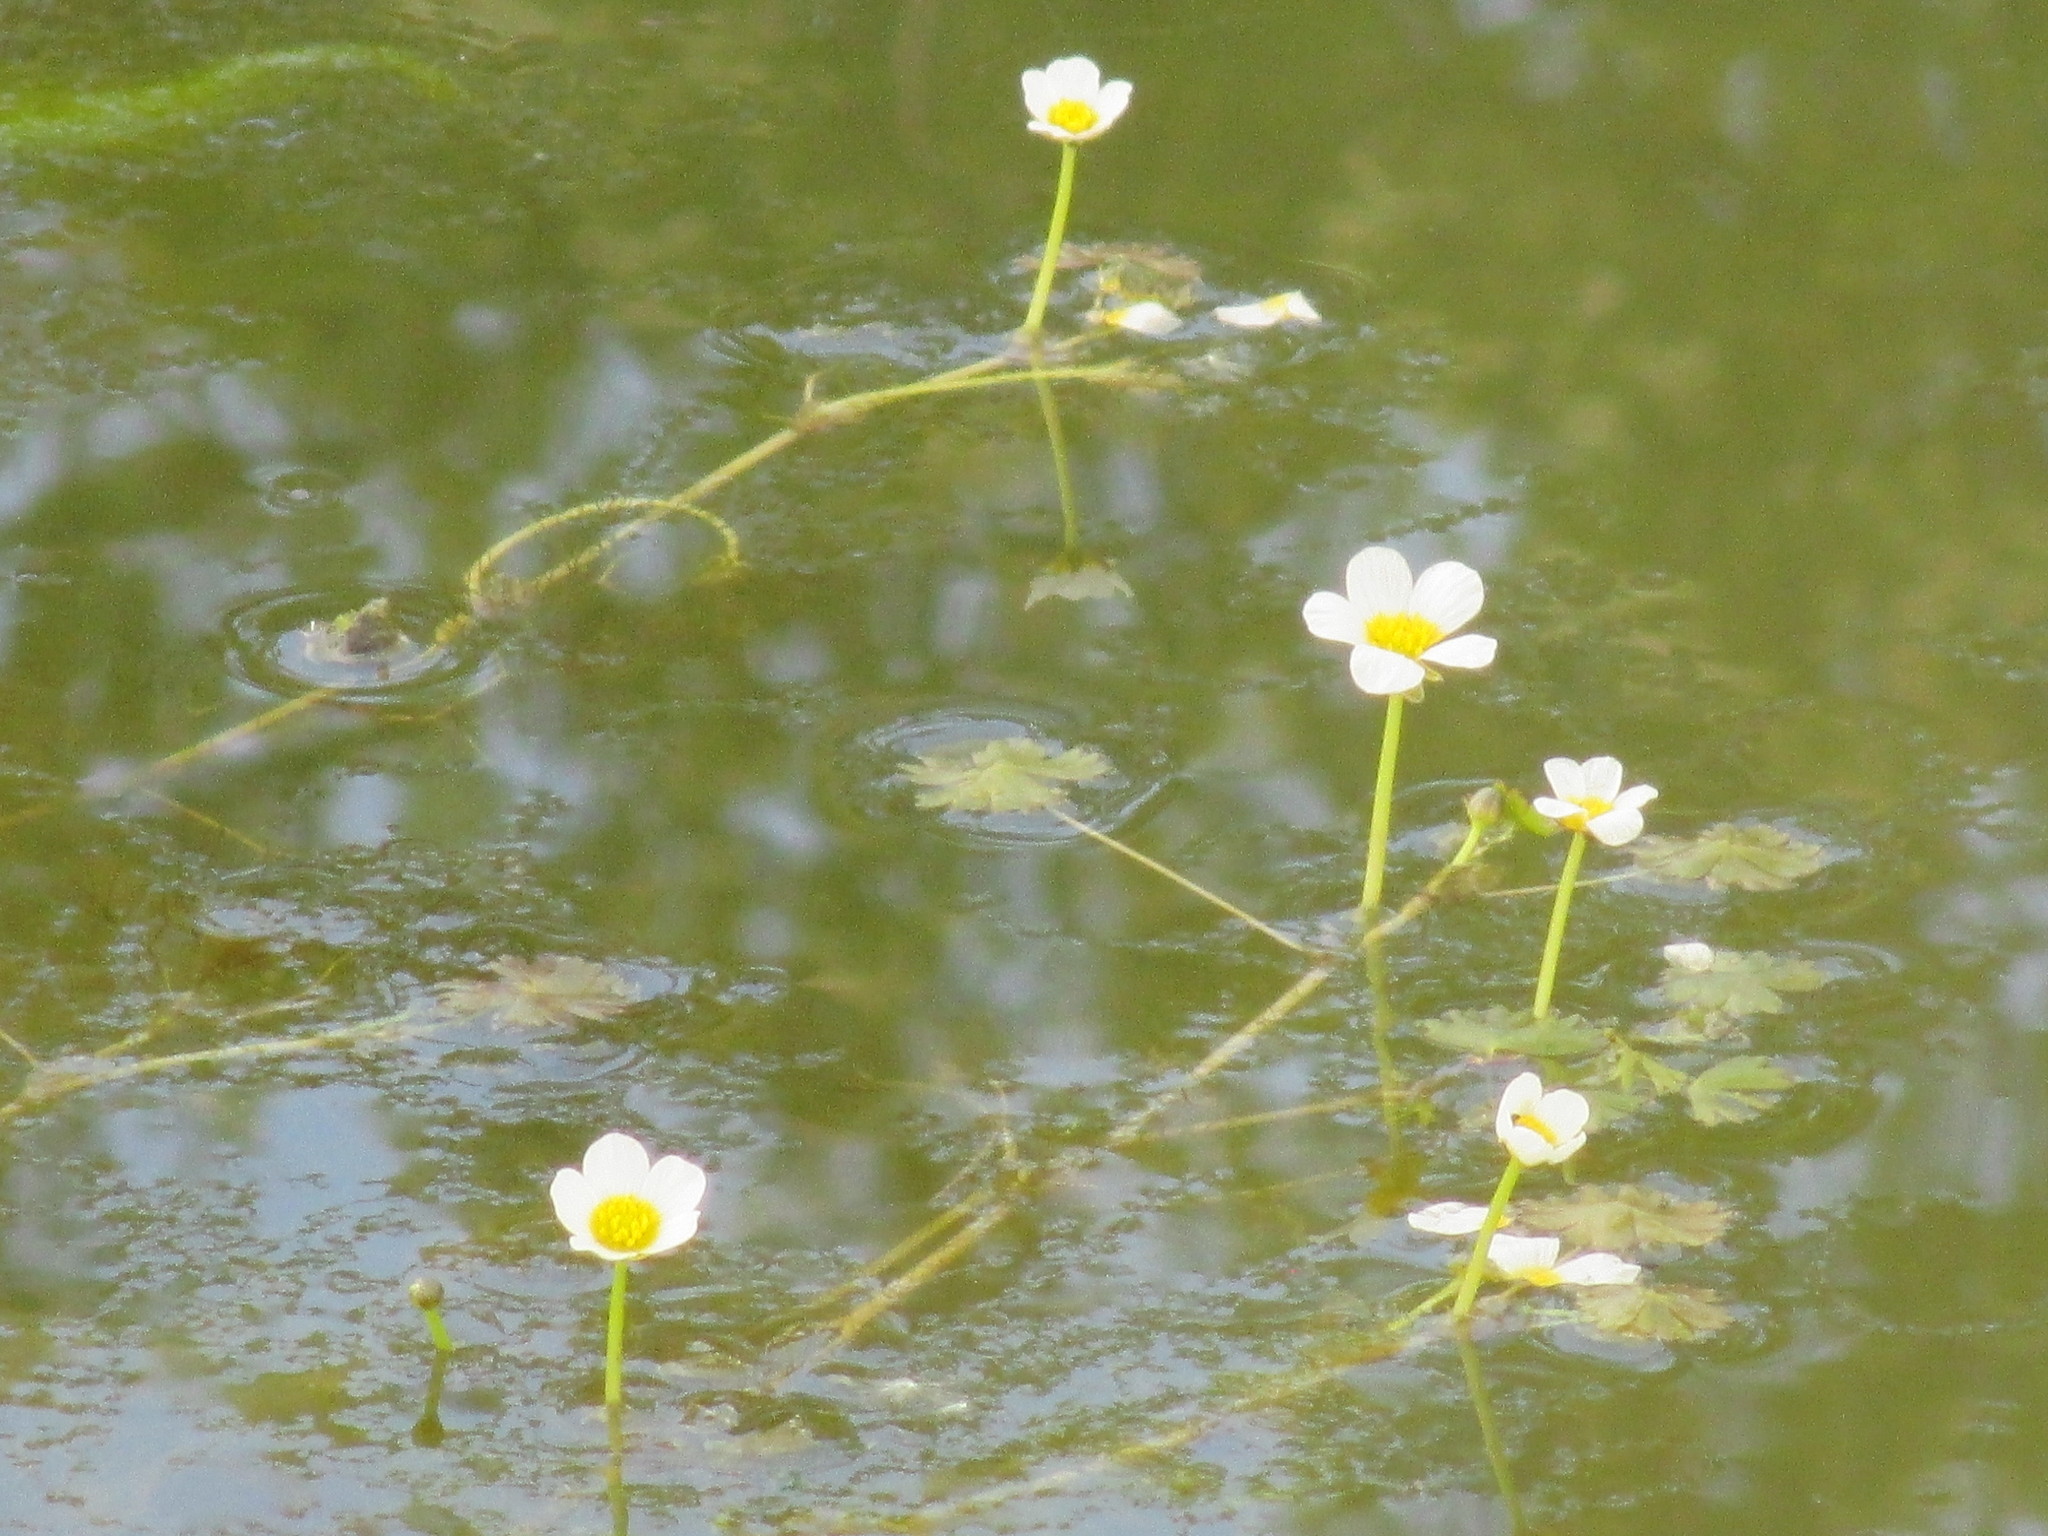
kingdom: Plantae
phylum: Tracheophyta
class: Magnoliopsida
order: Ranunculales
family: Ranunculaceae
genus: Ranunculus
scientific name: Ranunculus aquatilis
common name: Common water-crowfoot
